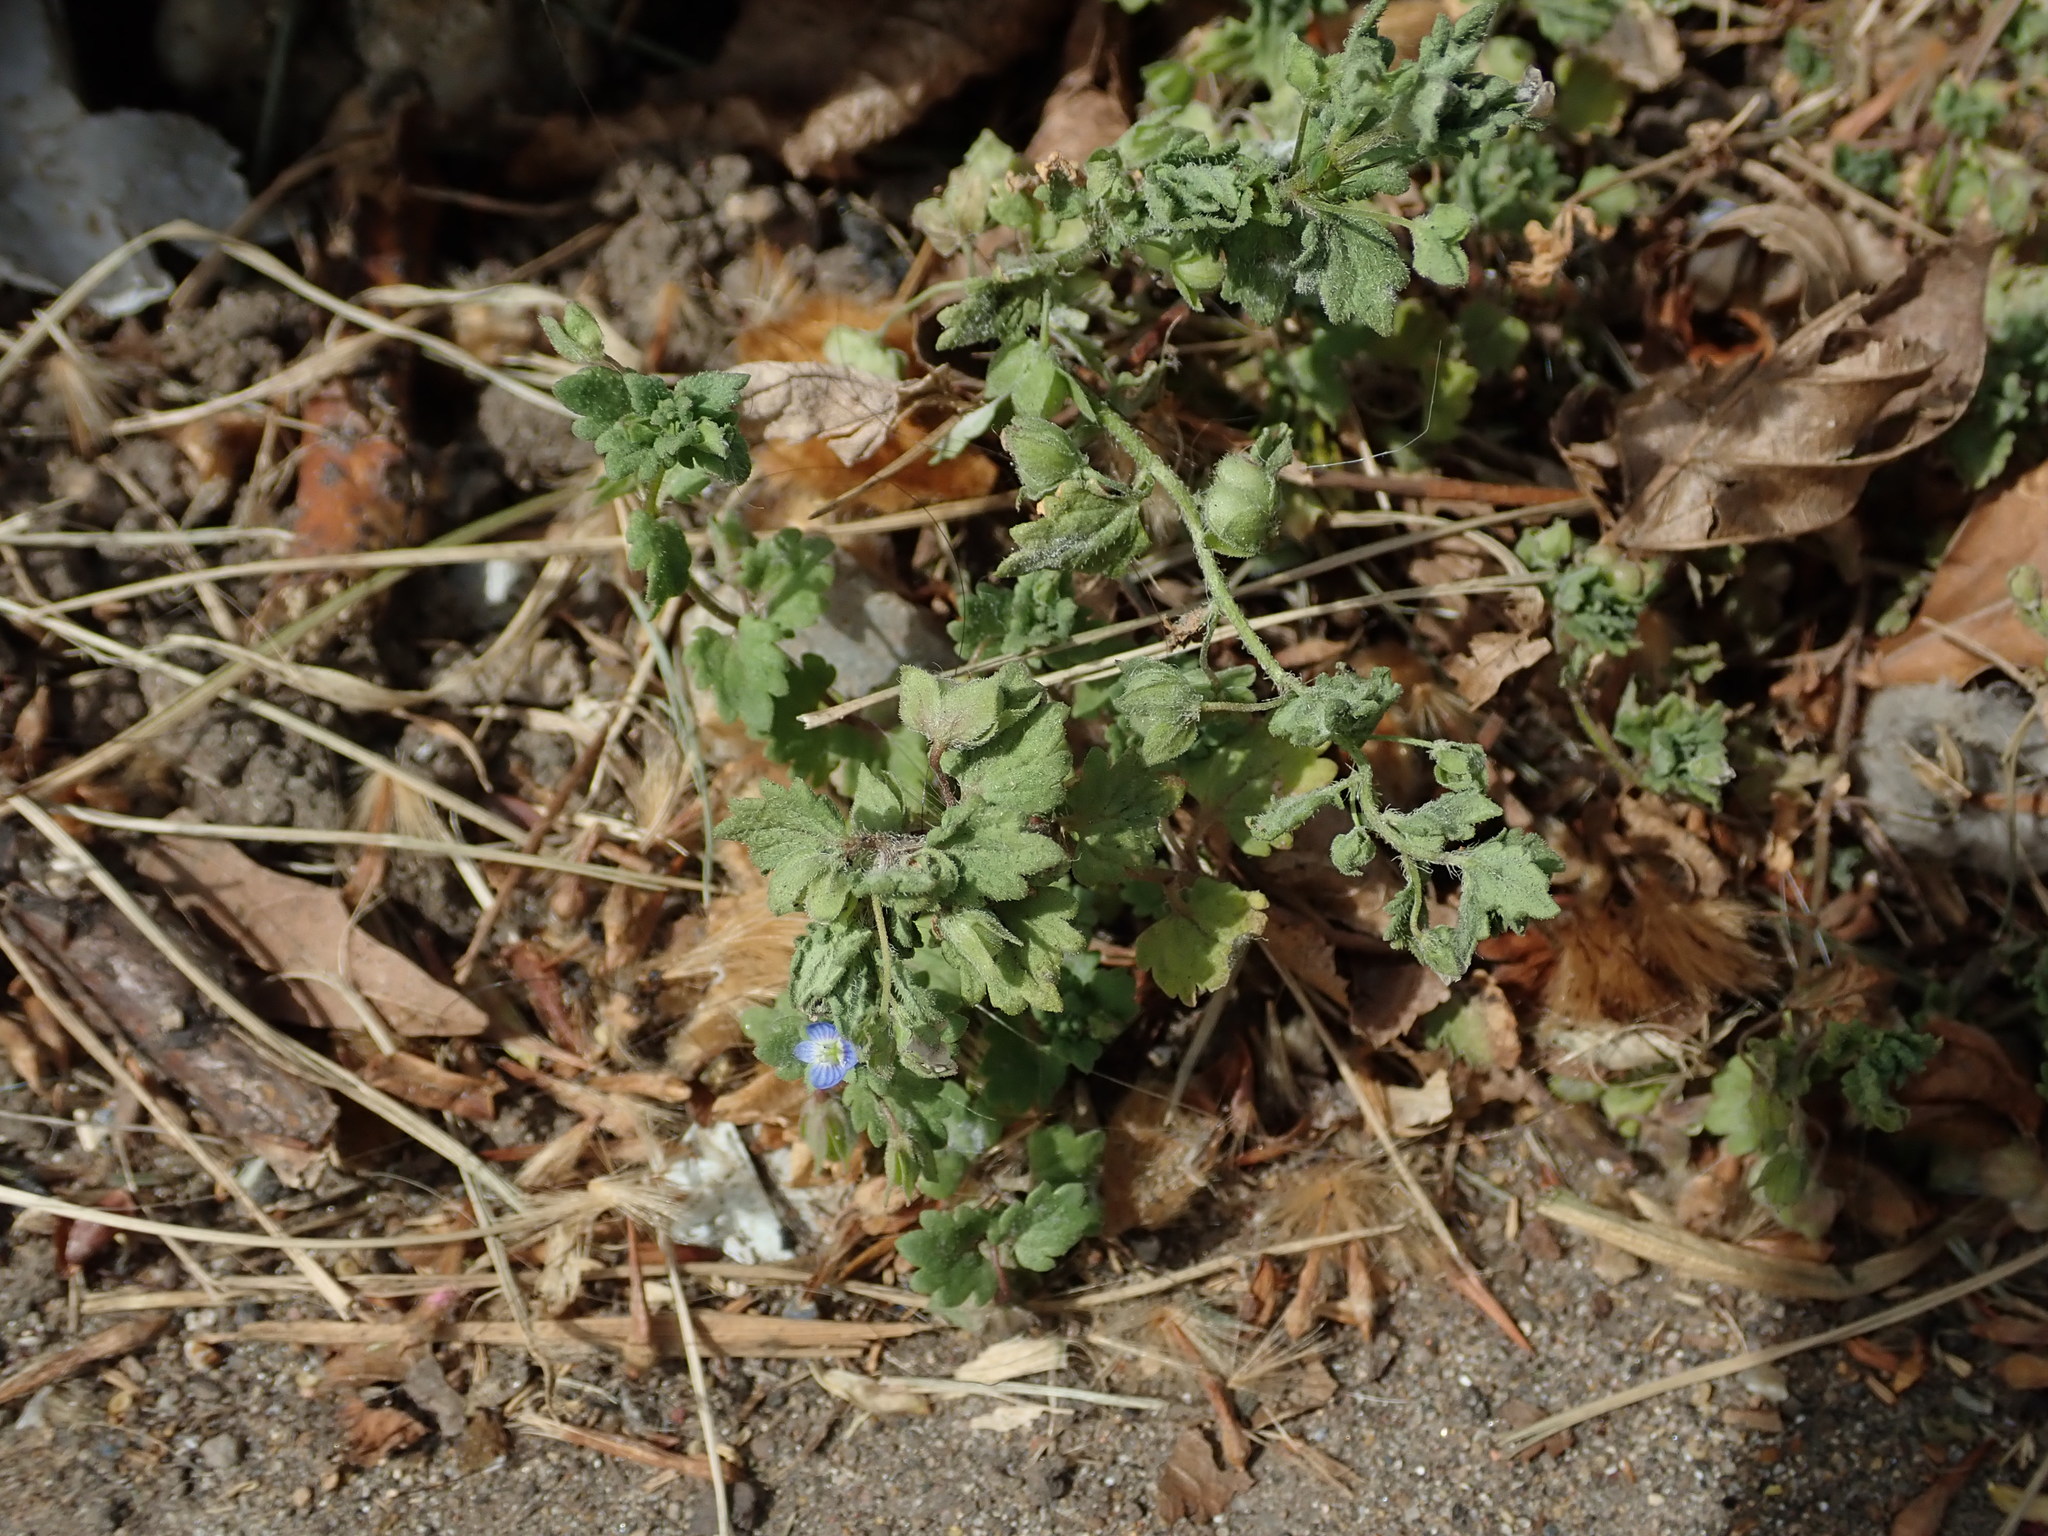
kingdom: Plantae
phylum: Tracheophyta
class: Magnoliopsida
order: Lamiales
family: Plantaginaceae
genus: Veronica
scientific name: Veronica polita
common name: Grey field-speedwell
